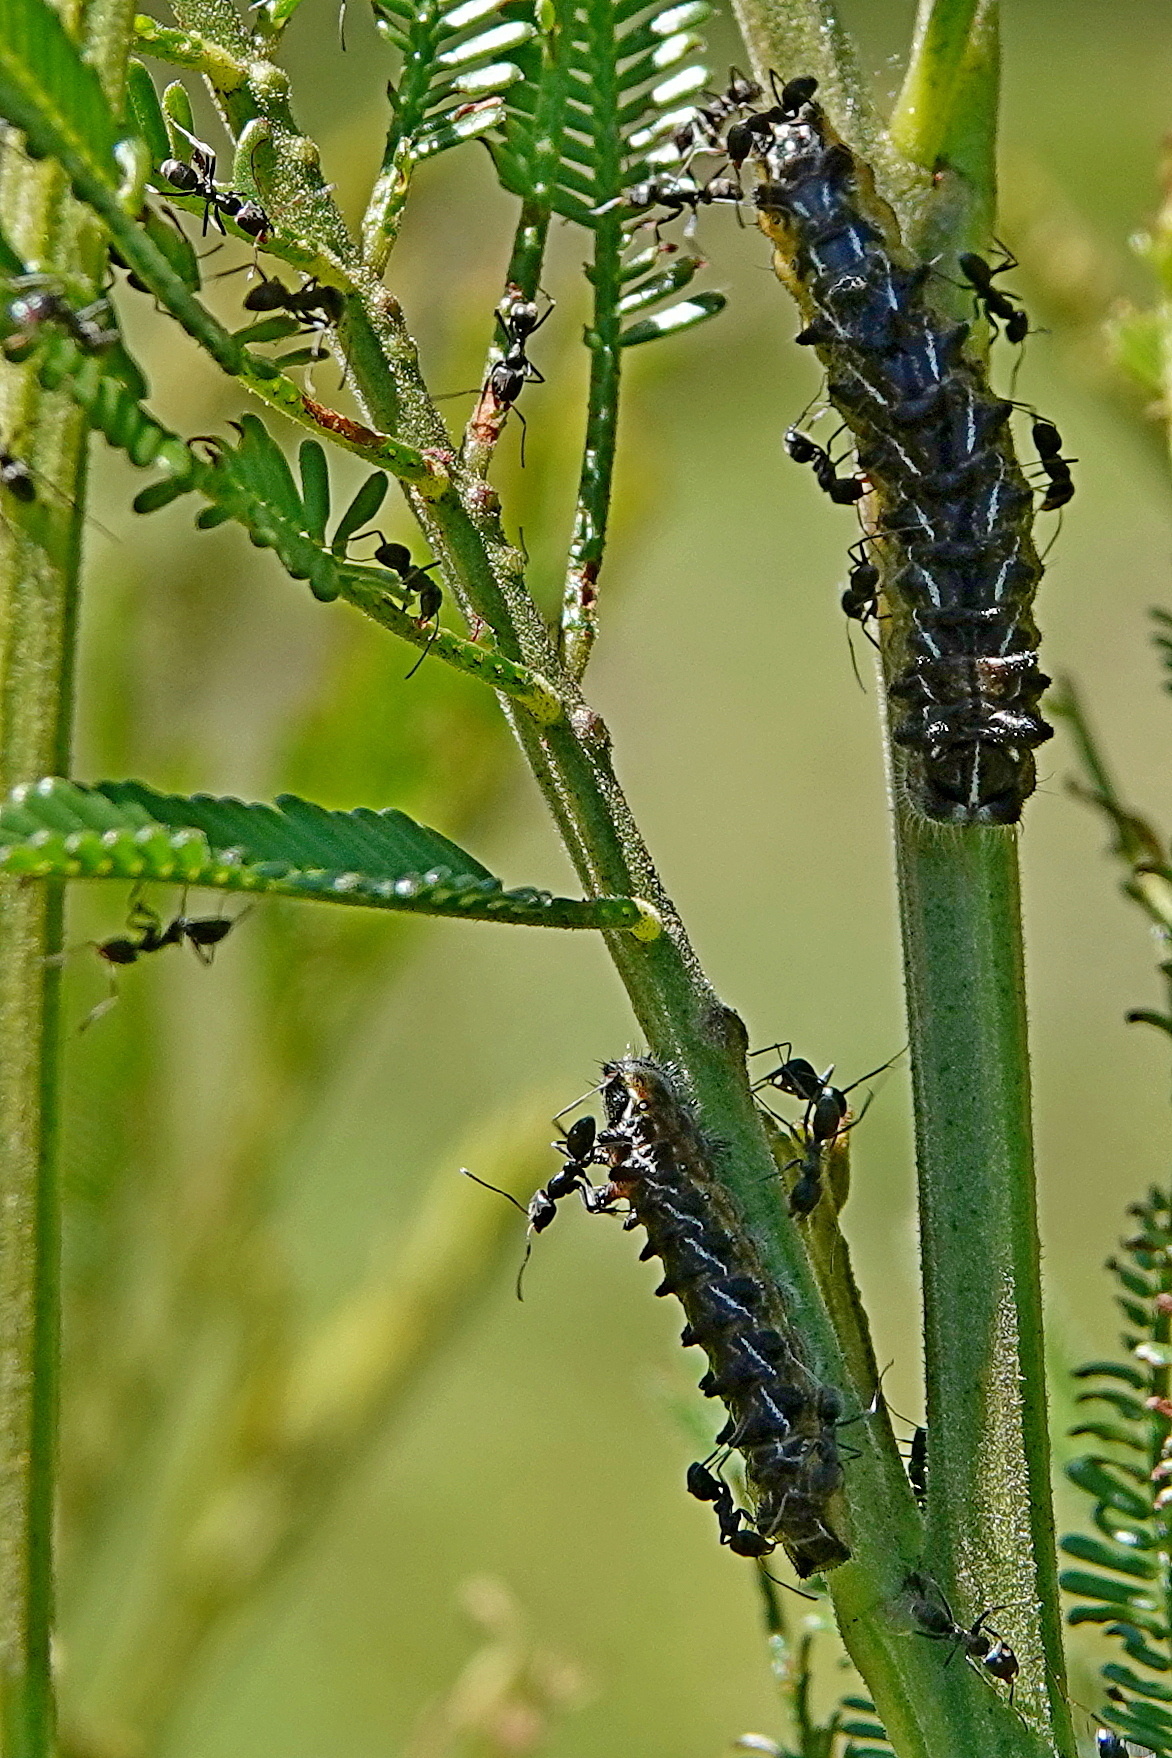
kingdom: Animalia
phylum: Arthropoda
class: Insecta
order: Lepidoptera
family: Lycaenidae
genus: Jalmenus
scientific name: Jalmenus evagoras
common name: Common imperial blue
